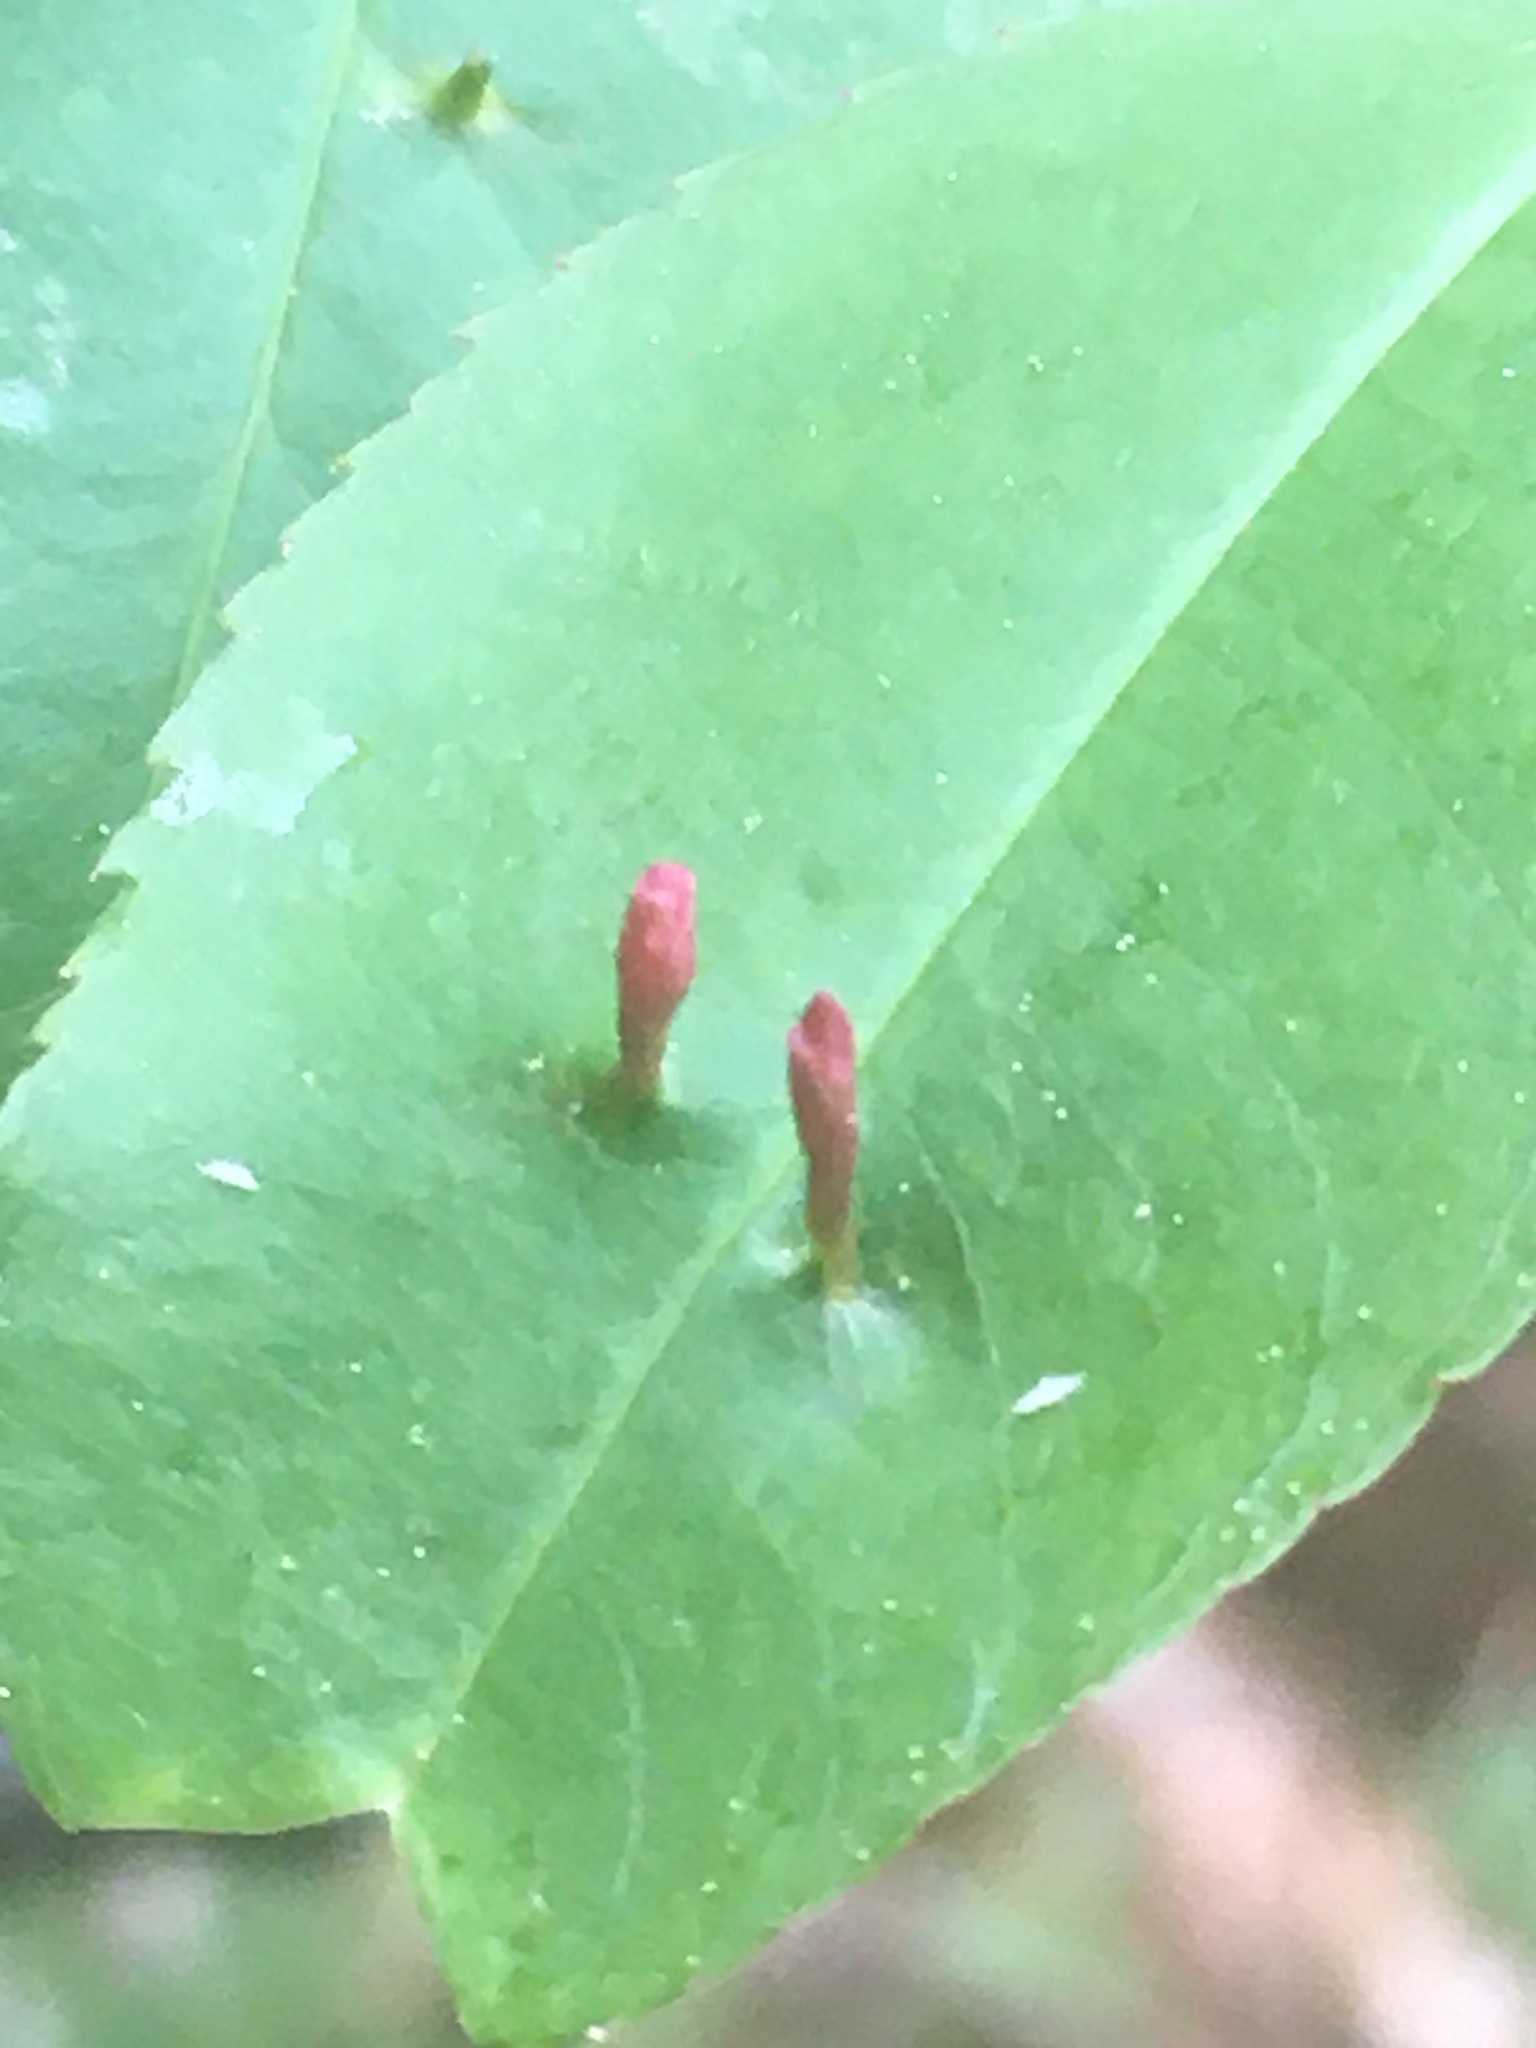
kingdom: Animalia
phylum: Arthropoda
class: Arachnida
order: Trombidiformes
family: Eriophyidae
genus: Eriophyes
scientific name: Eriophyes
